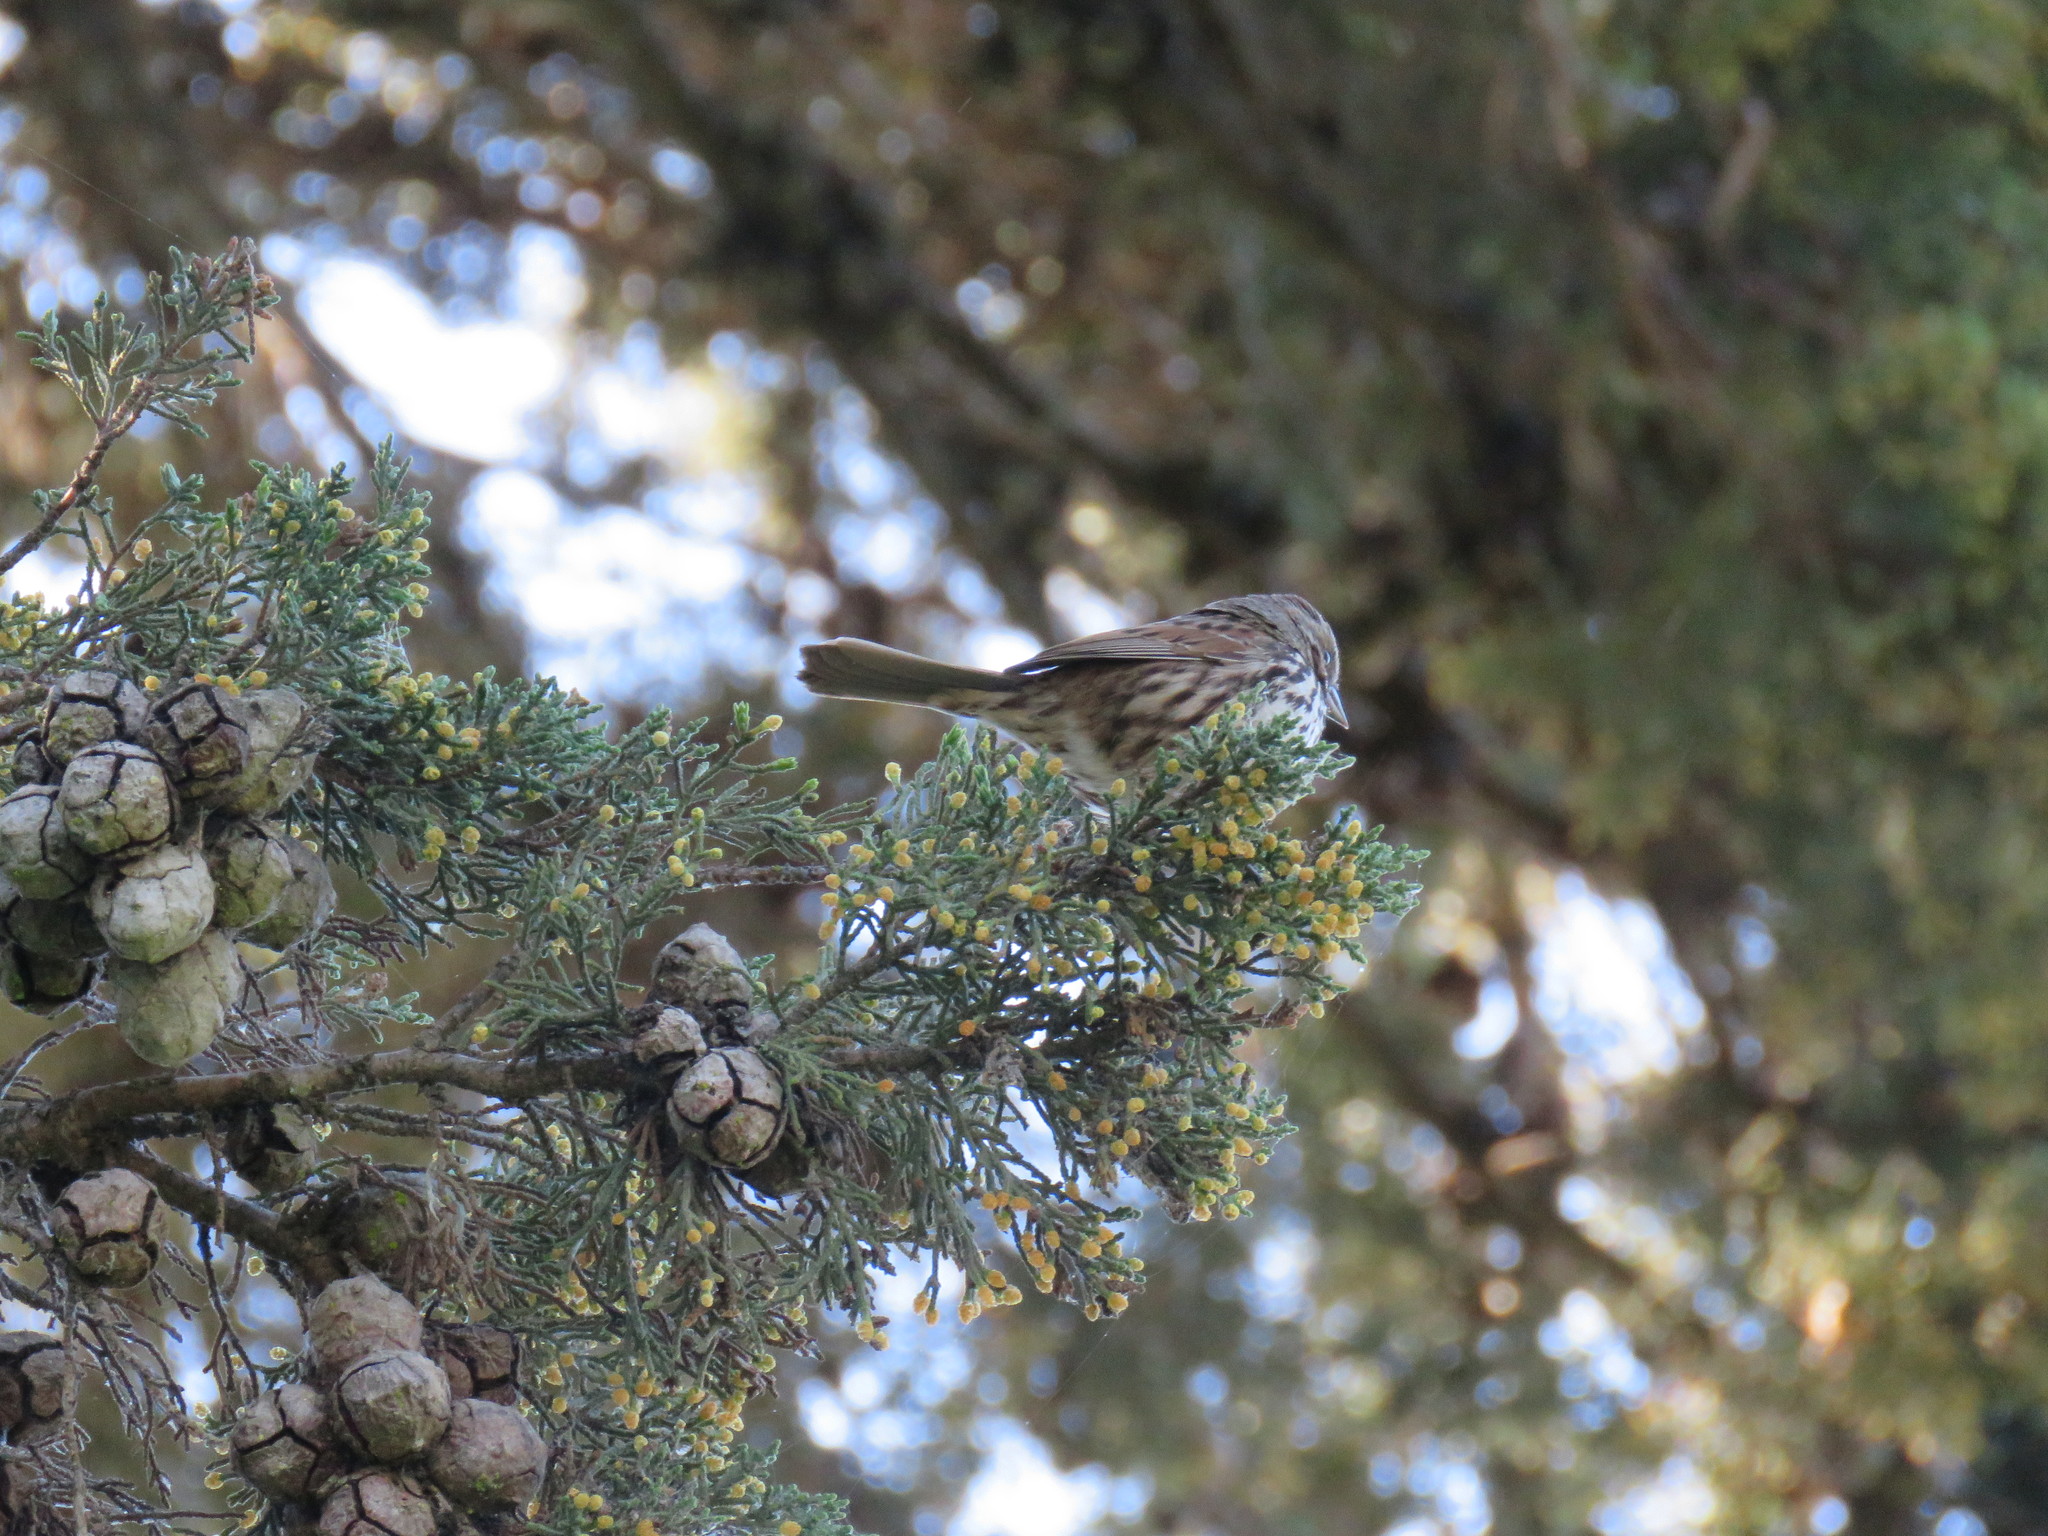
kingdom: Animalia
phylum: Chordata
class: Aves
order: Passeriformes
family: Passerellidae
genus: Melospiza
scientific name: Melospiza melodia
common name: Song sparrow
